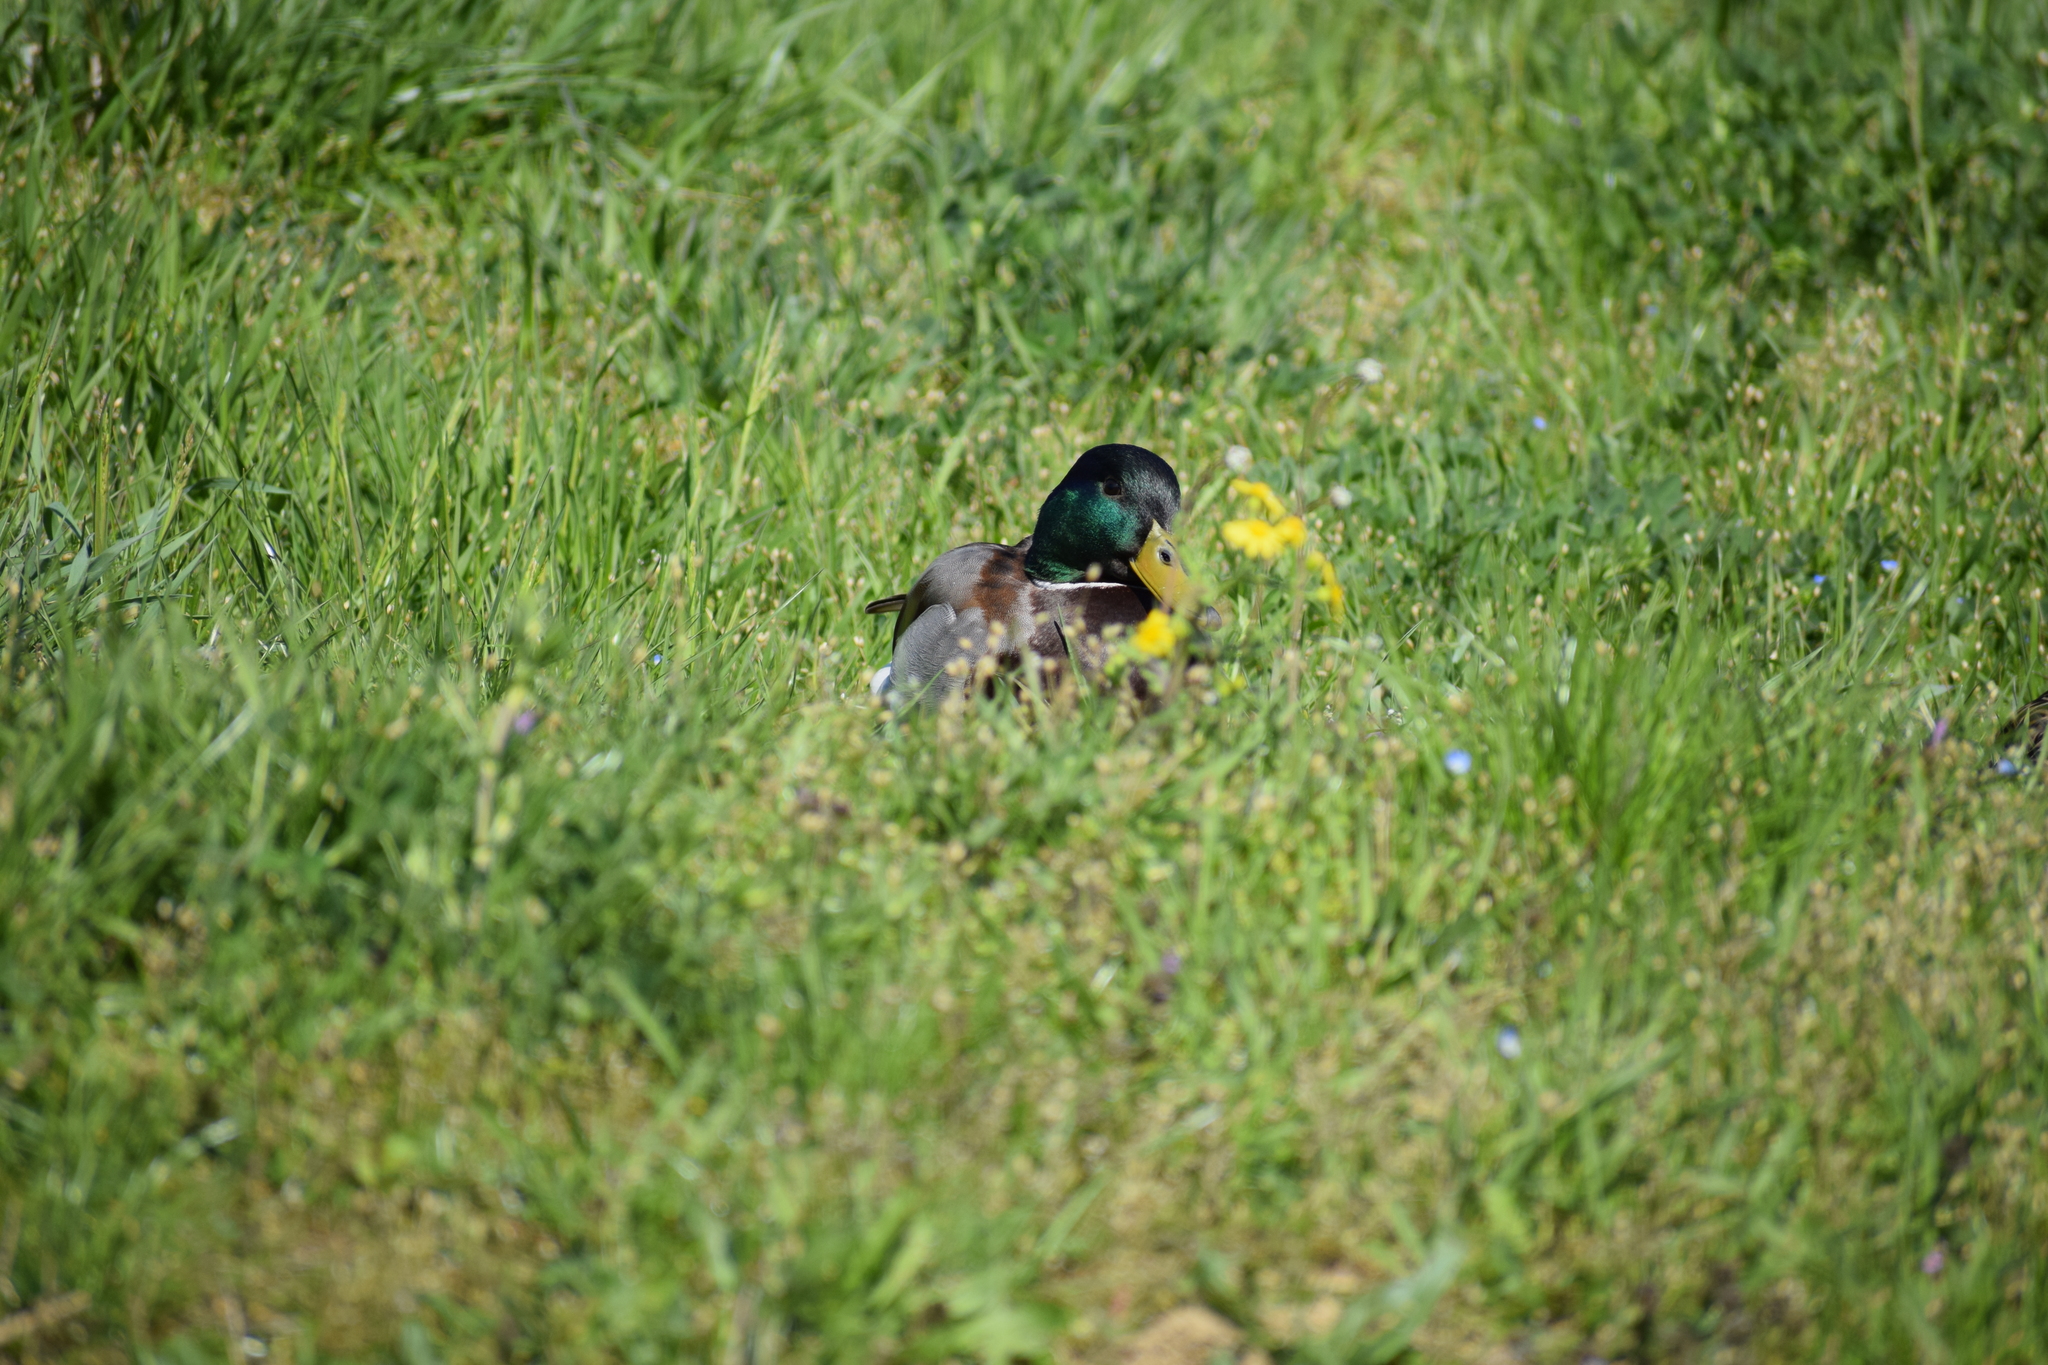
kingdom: Animalia
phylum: Chordata
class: Aves
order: Anseriformes
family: Anatidae
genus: Anas
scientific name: Anas platyrhynchos
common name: Mallard
